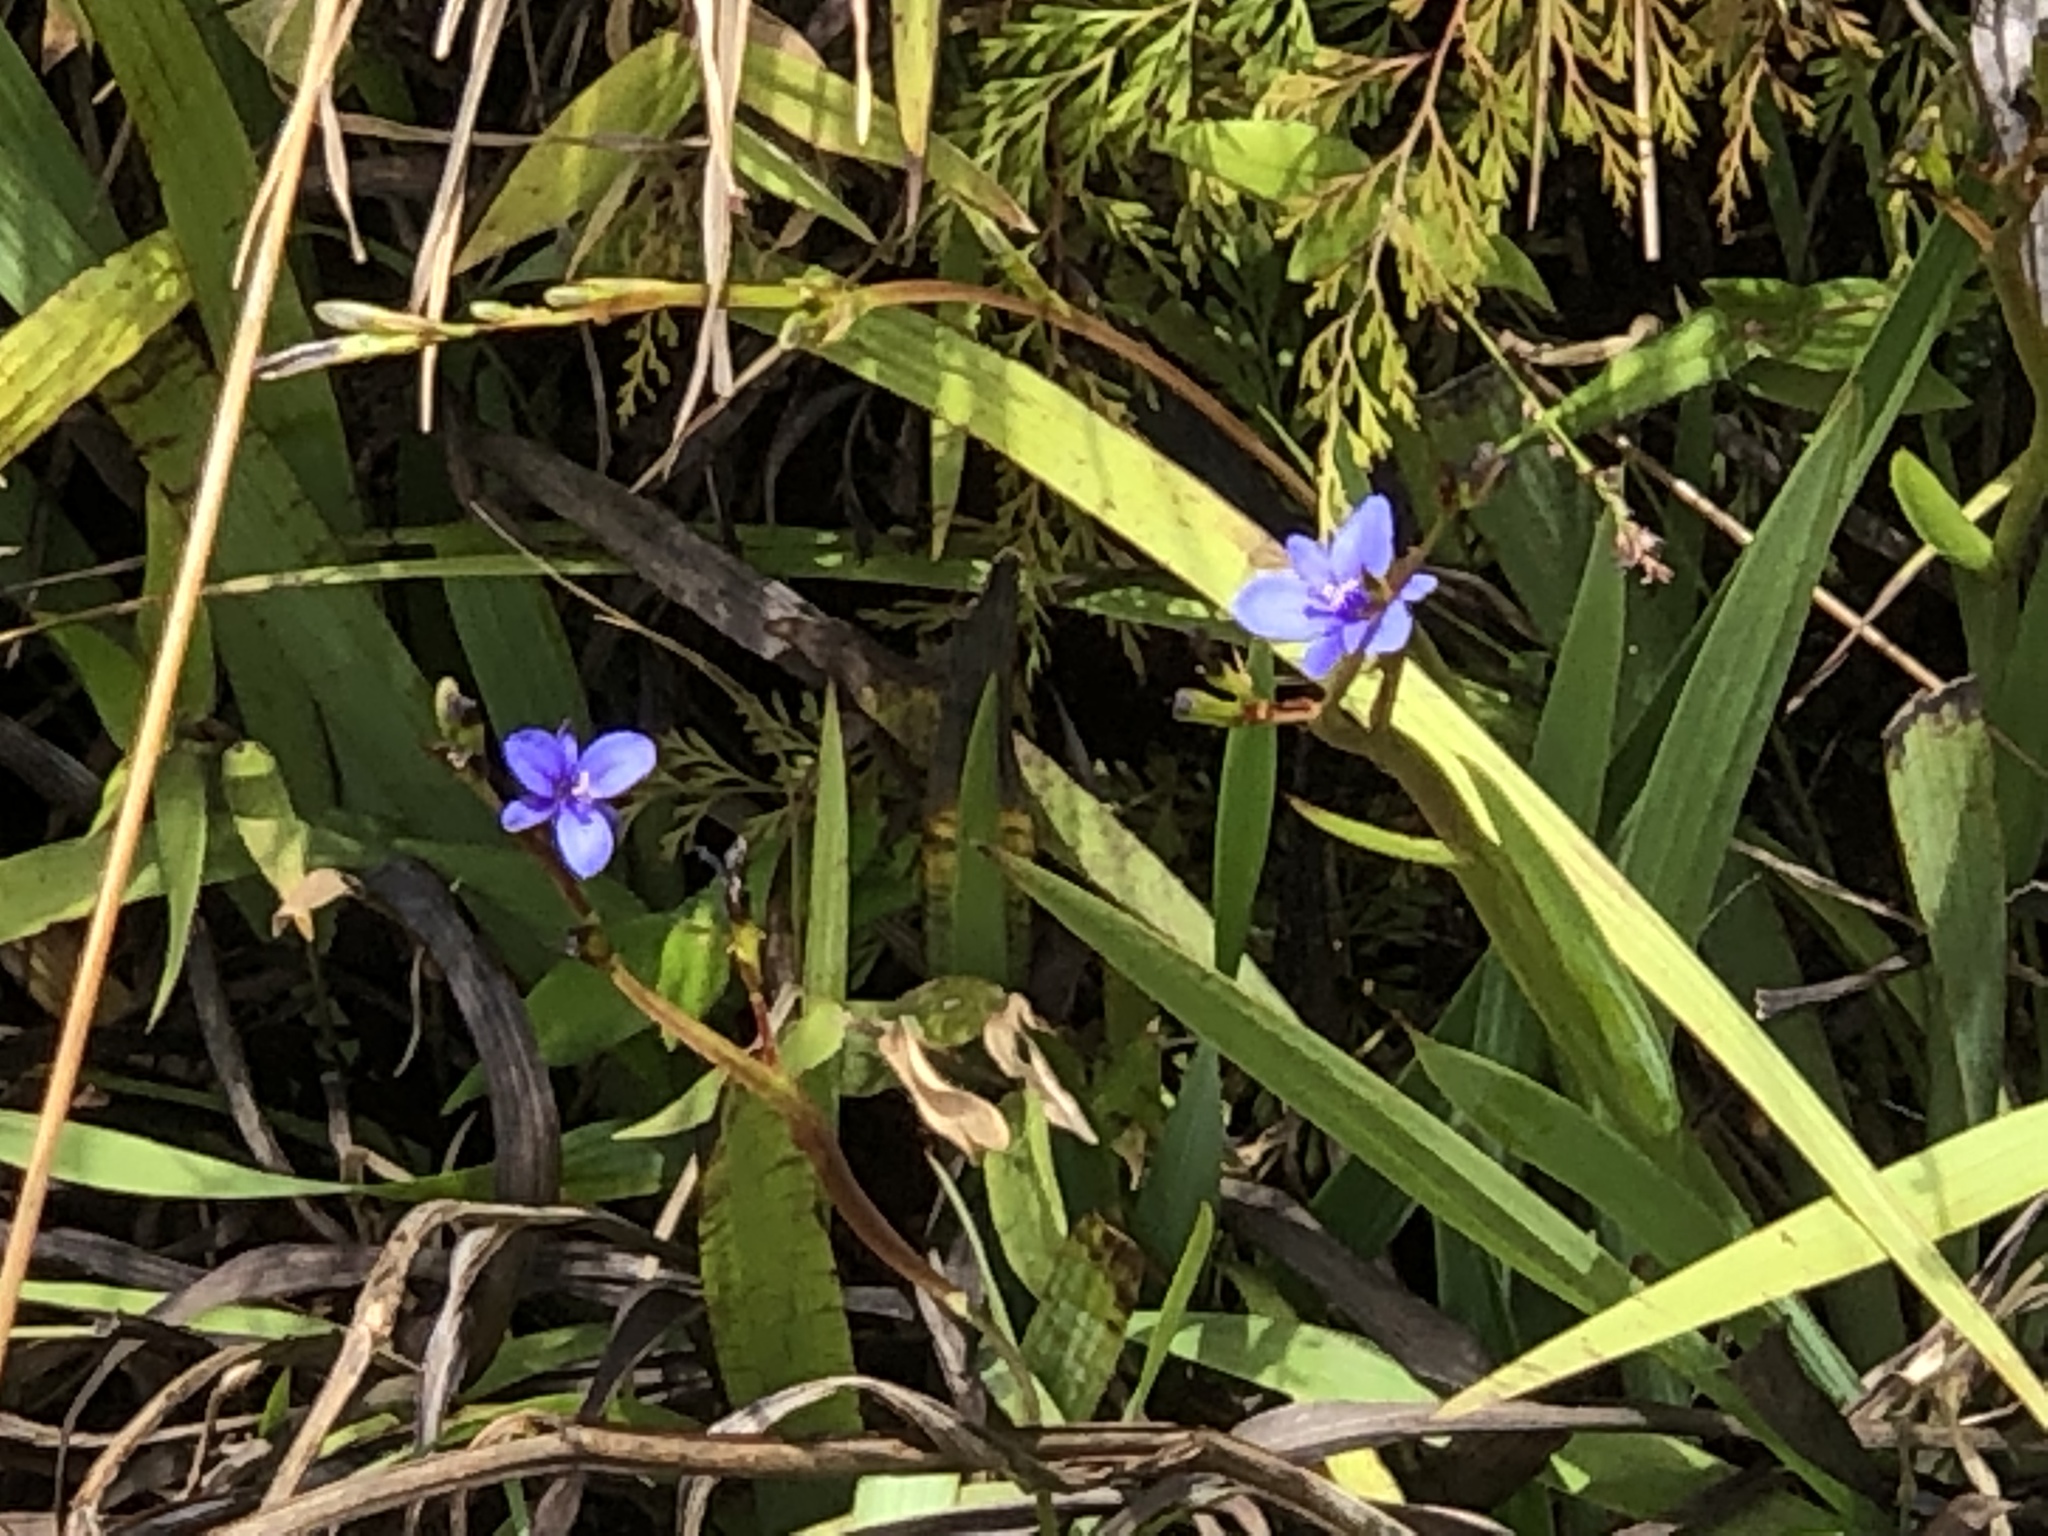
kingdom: Plantae
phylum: Tracheophyta
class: Liliopsida
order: Asparagales
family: Iridaceae
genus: Aristea
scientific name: Aristea ecklonii
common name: Blue corn-lily
